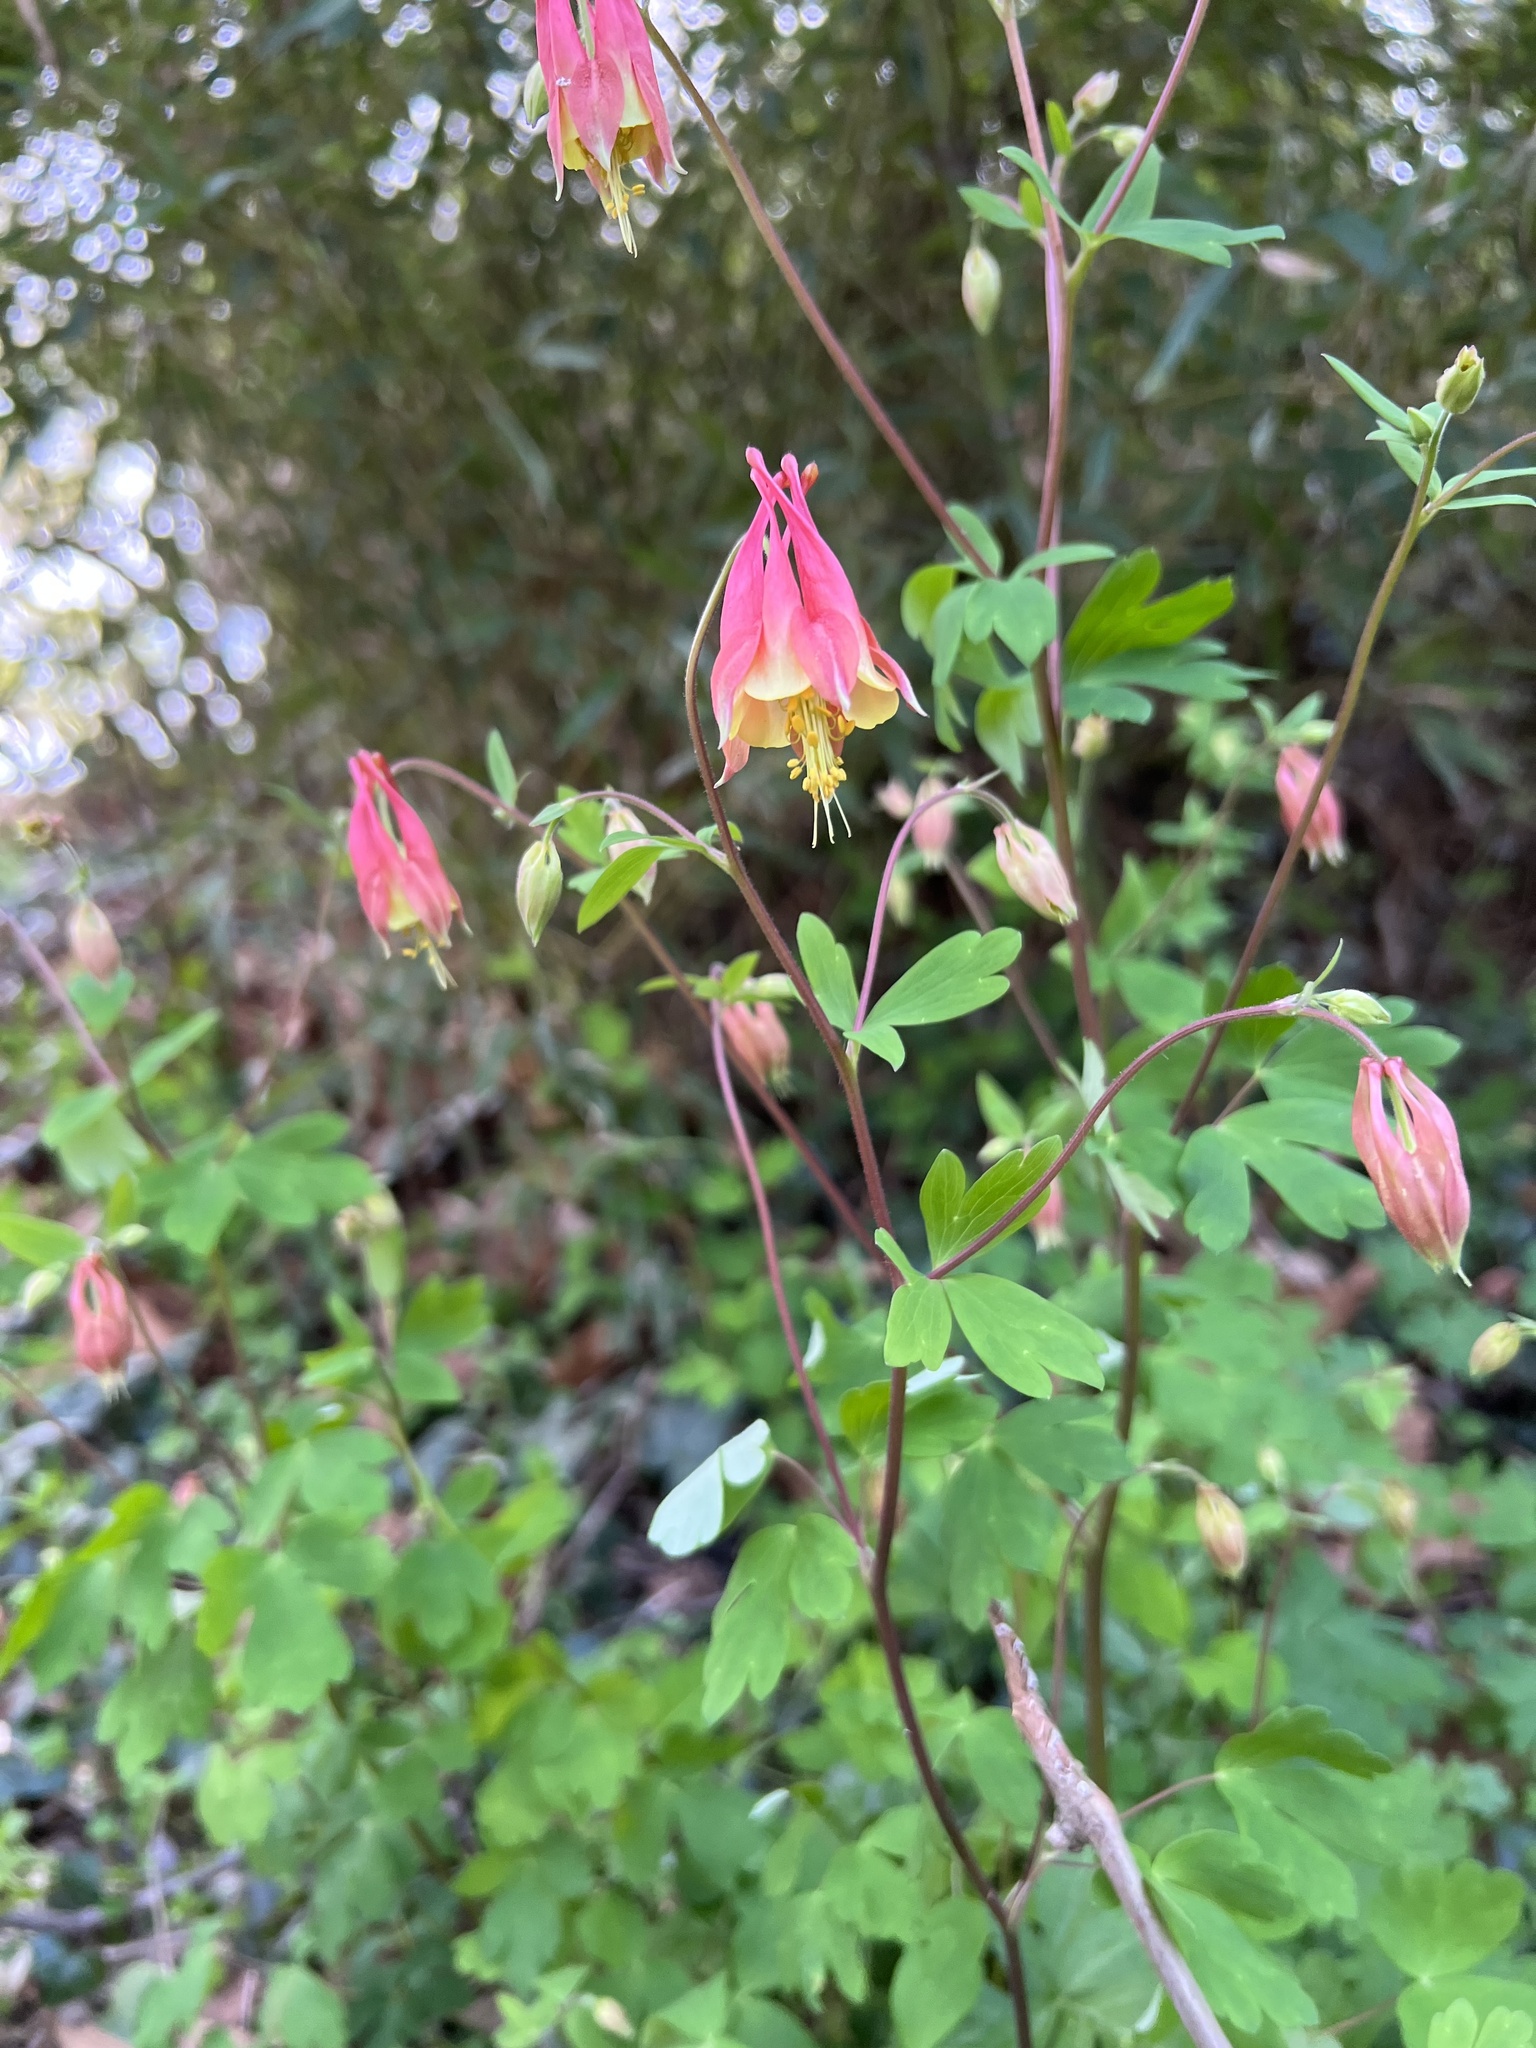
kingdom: Plantae
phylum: Tracheophyta
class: Magnoliopsida
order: Ranunculales
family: Ranunculaceae
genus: Aquilegia
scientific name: Aquilegia canadensis
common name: American columbine
